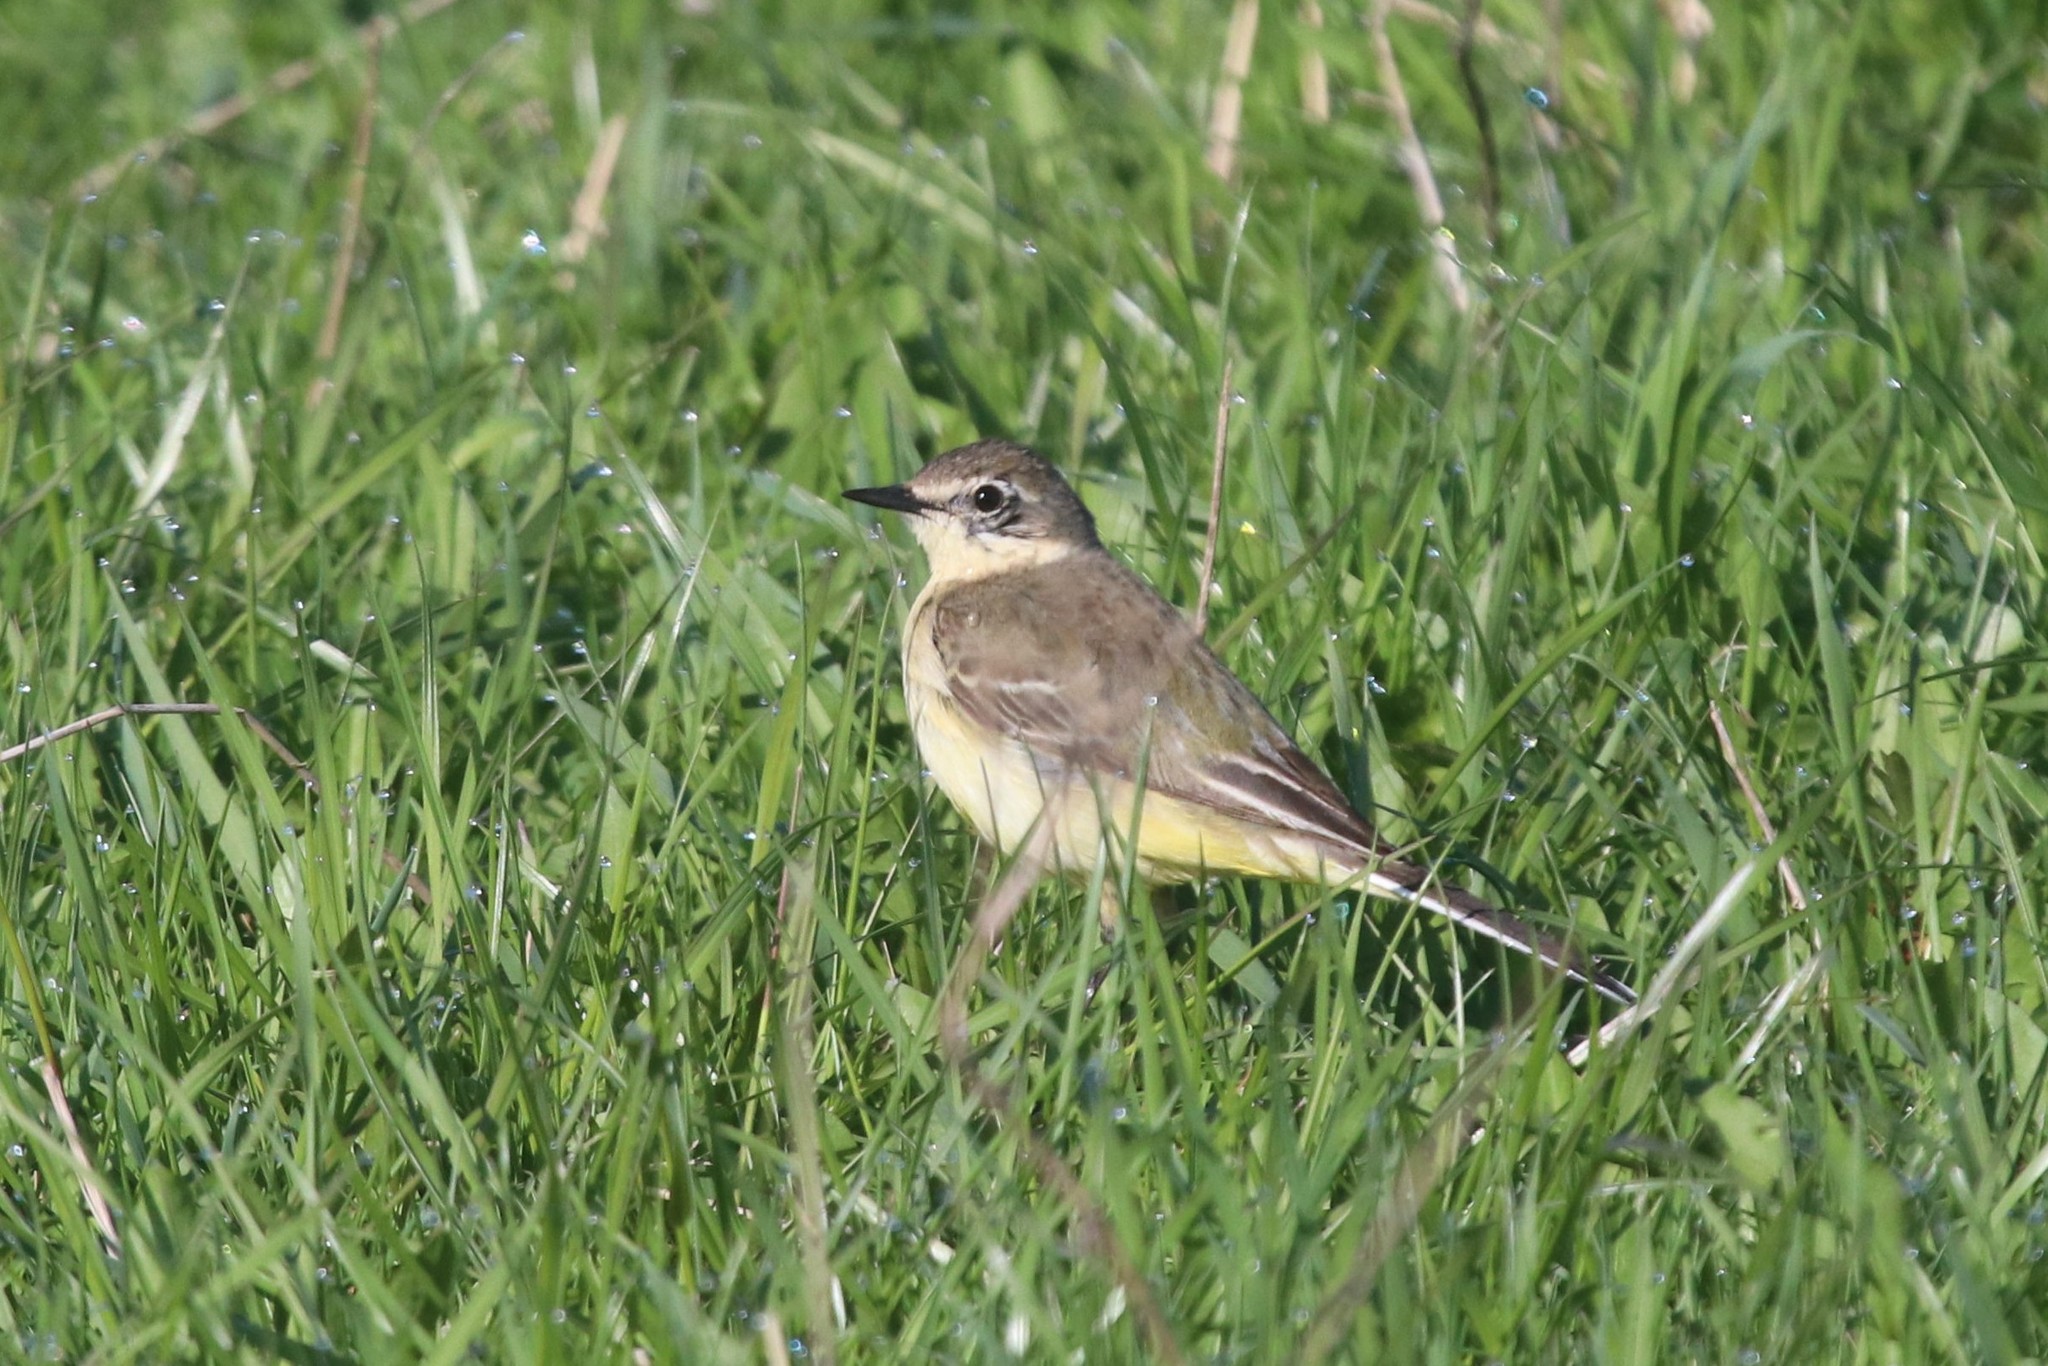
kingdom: Animalia
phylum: Chordata
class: Aves
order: Passeriformes
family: Motacillidae
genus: Motacilla
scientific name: Motacilla flava
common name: Western yellow wagtail
